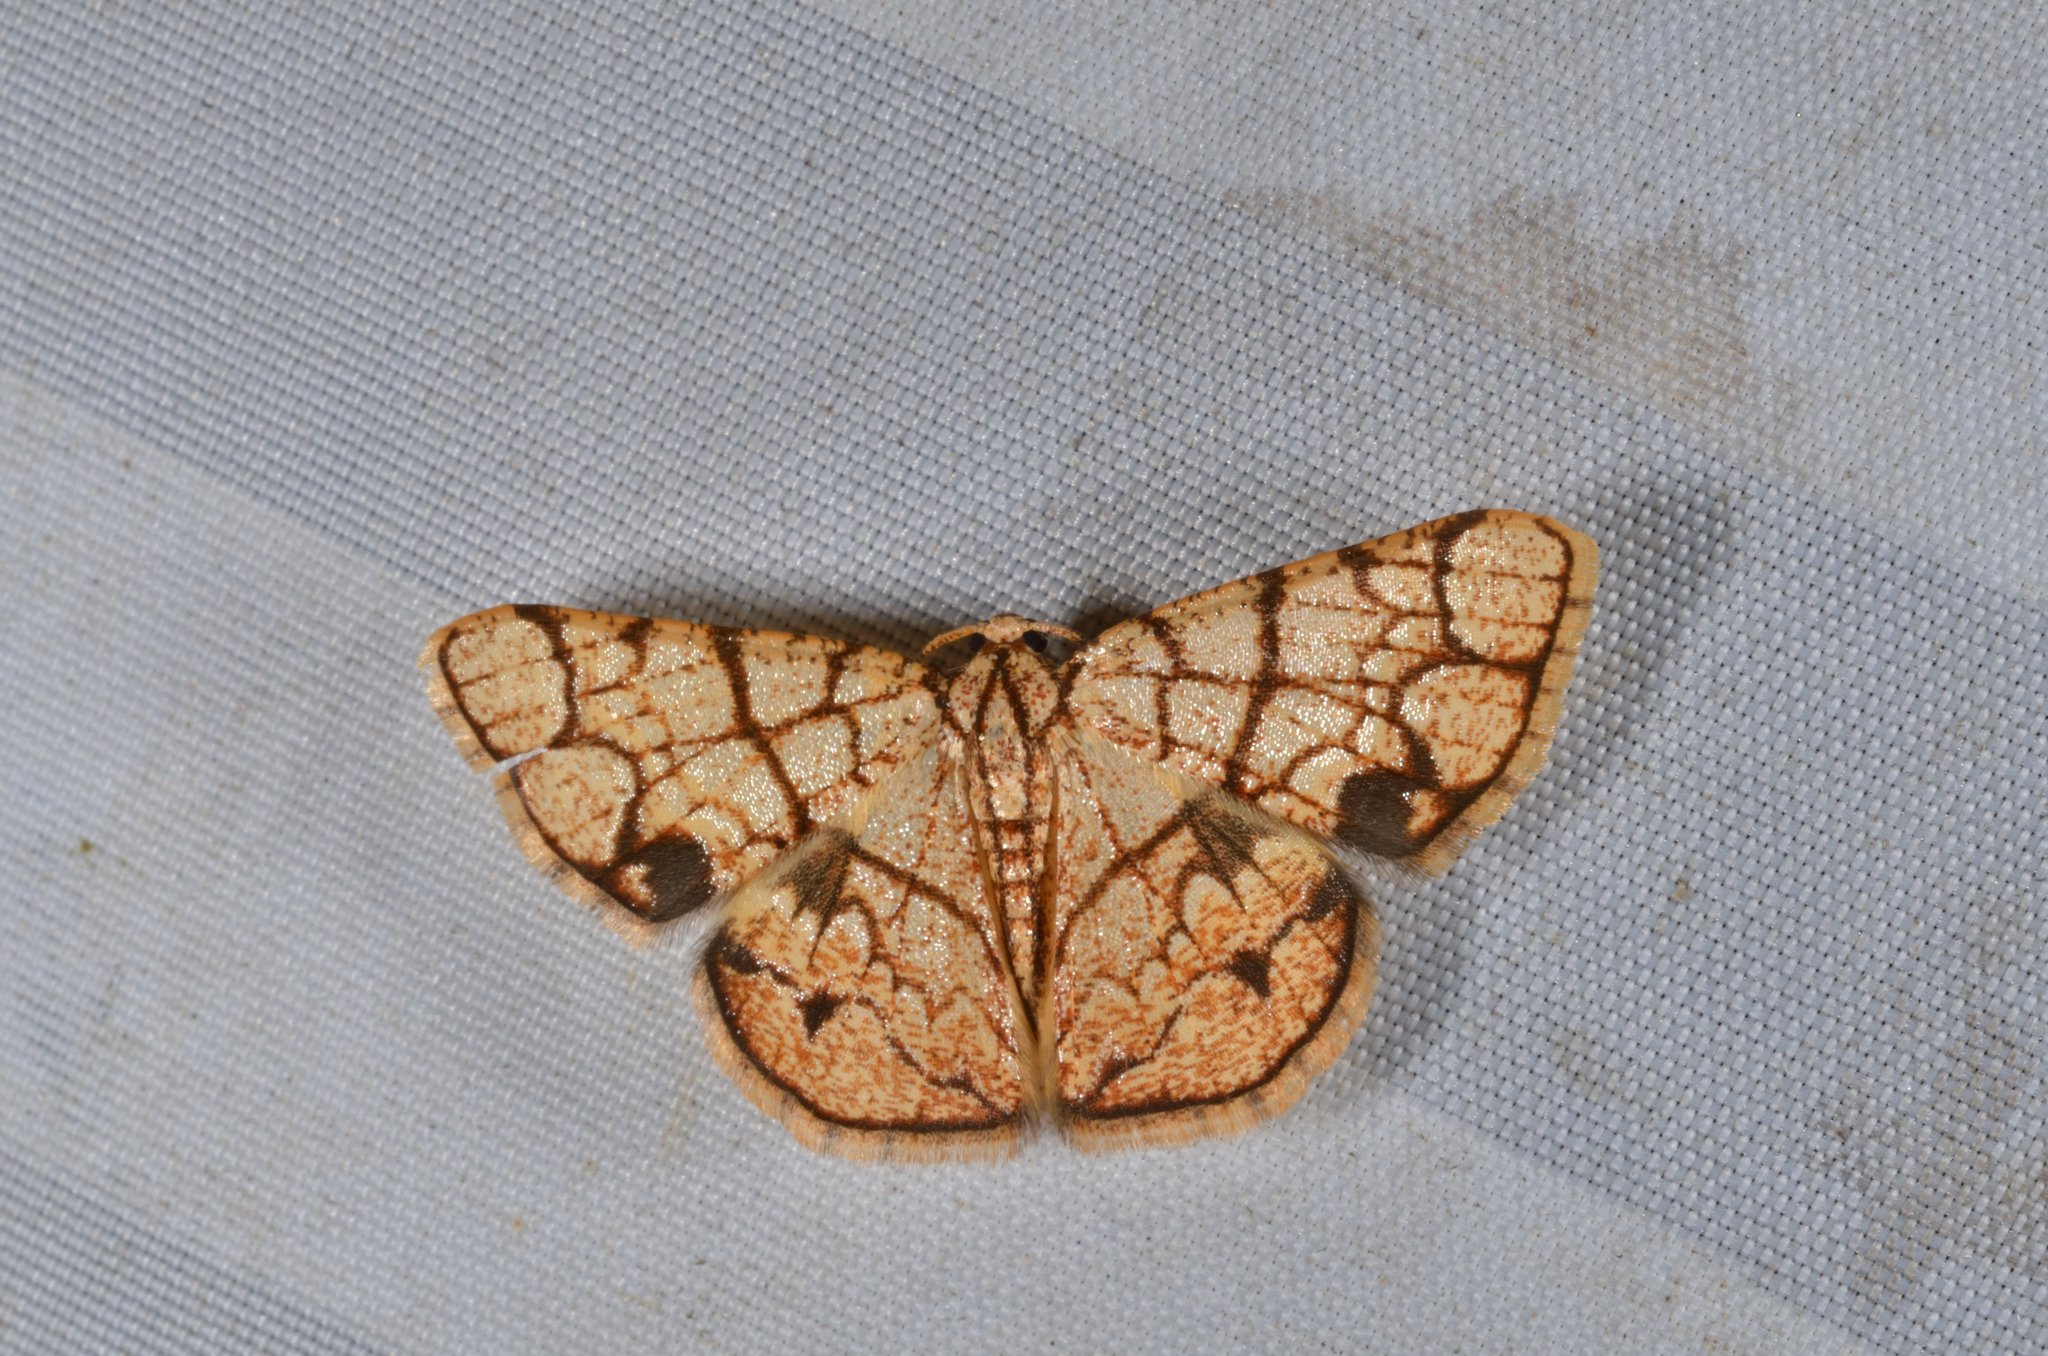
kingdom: Animalia
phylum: Arthropoda
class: Insecta
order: Lepidoptera
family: Geometridae
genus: Heterostegane
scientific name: Heterostegane subtessellata
